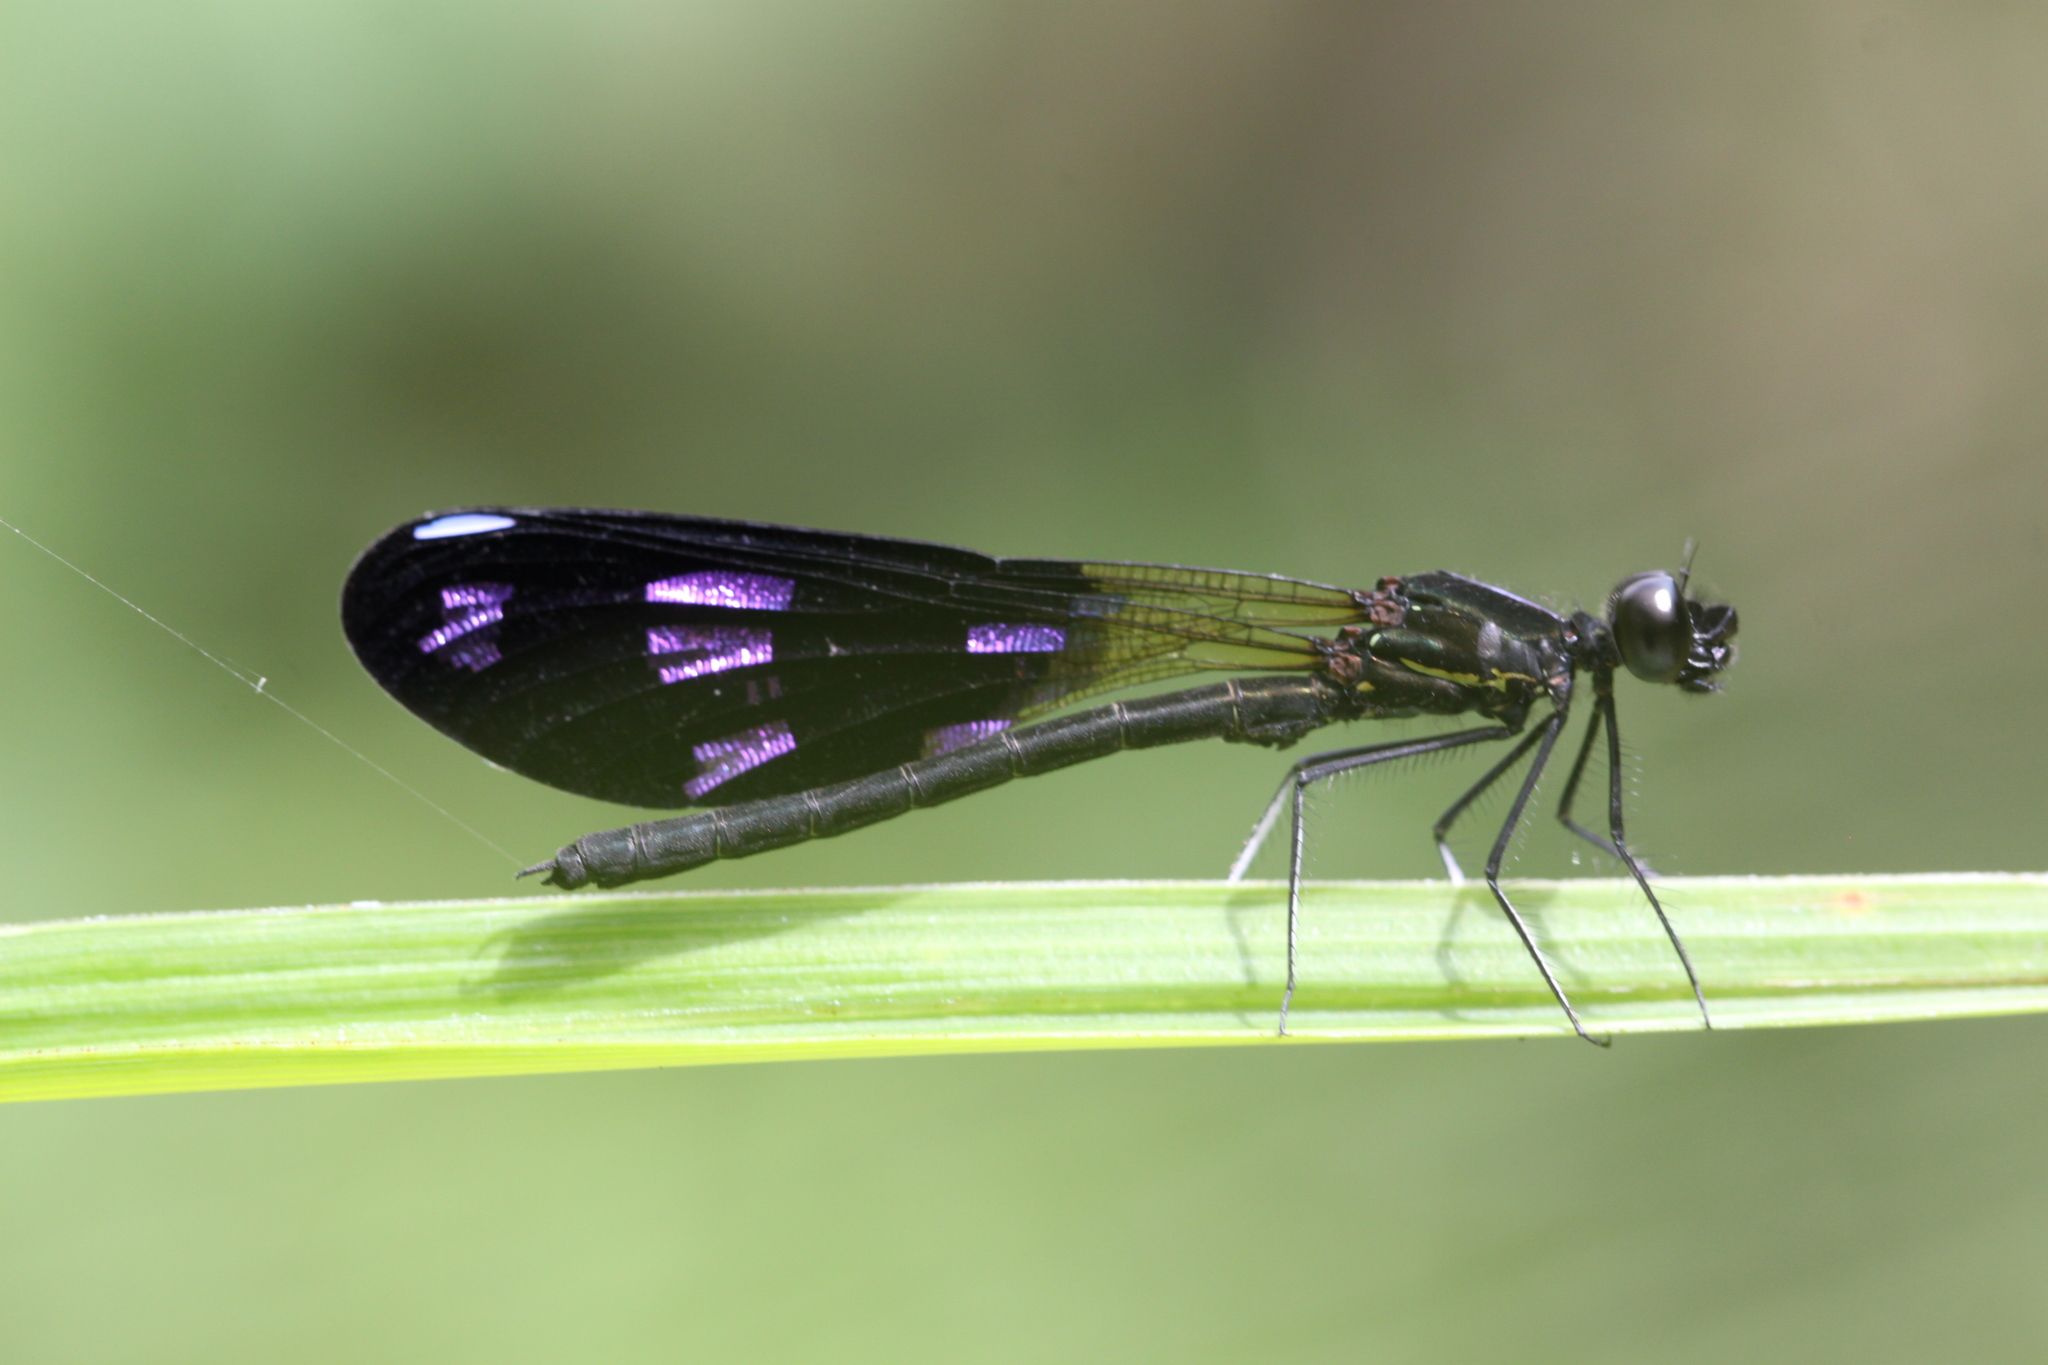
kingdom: Animalia
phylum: Arthropoda
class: Insecta
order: Odonata
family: Chlorocyphidae
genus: Aristocypha
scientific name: Aristocypha fenestrella
